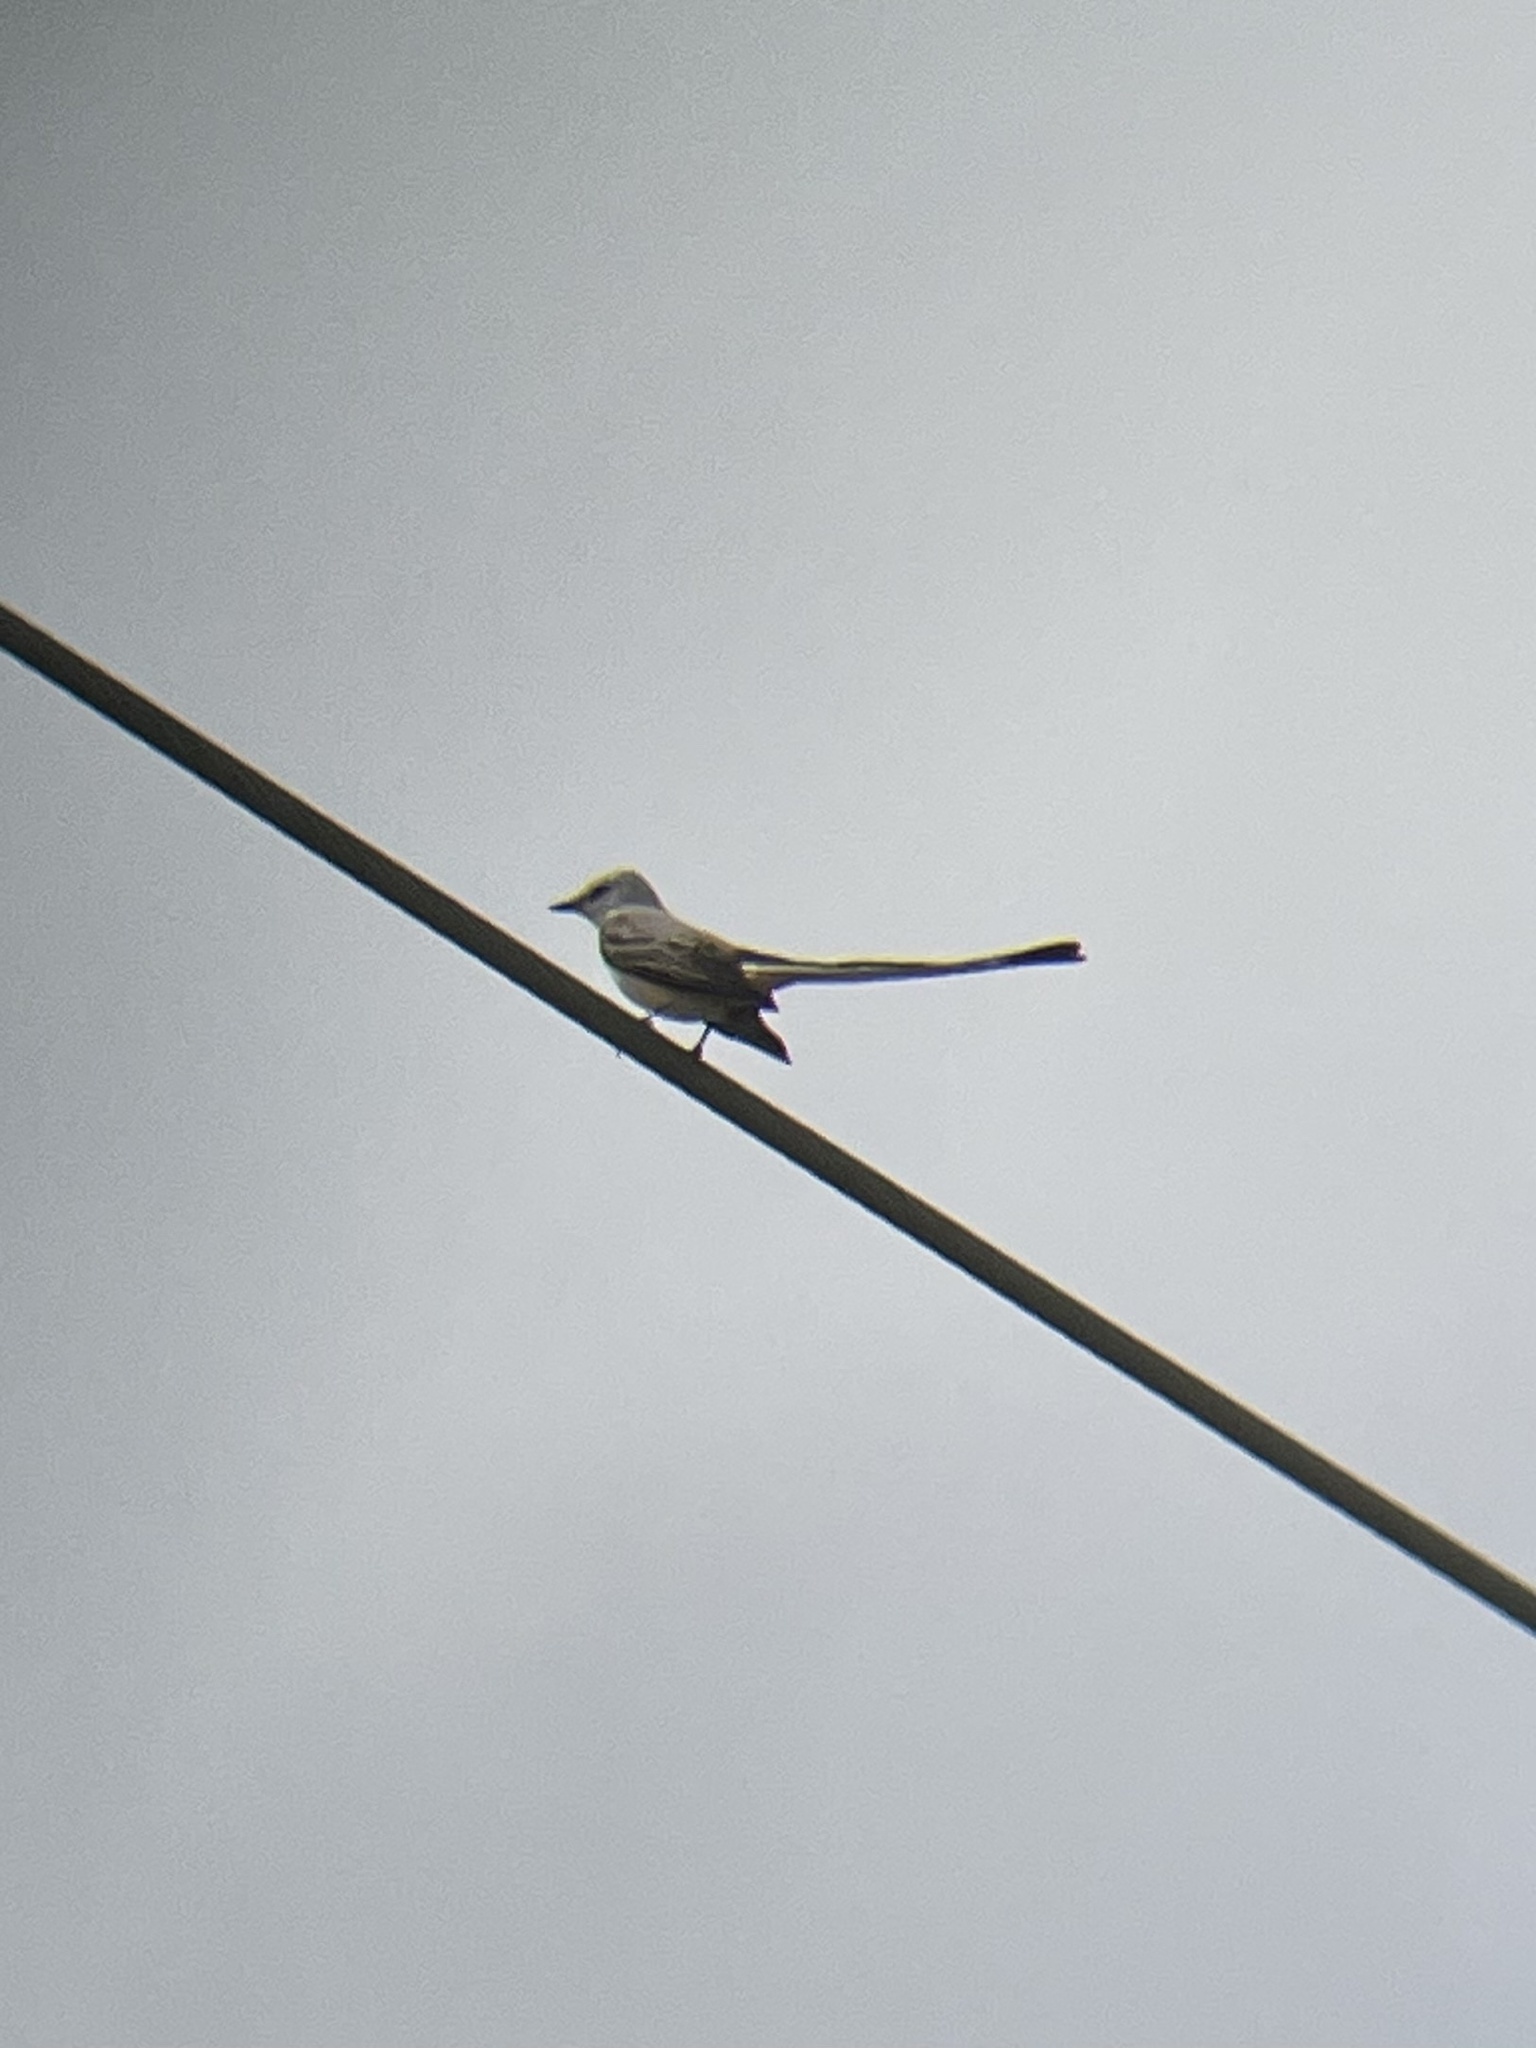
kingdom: Animalia
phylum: Chordata
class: Aves
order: Passeriformes
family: Tyrannidae
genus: Tyrannus
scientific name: Tyrannus forficatus
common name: Scissor-tailed flycatcher
